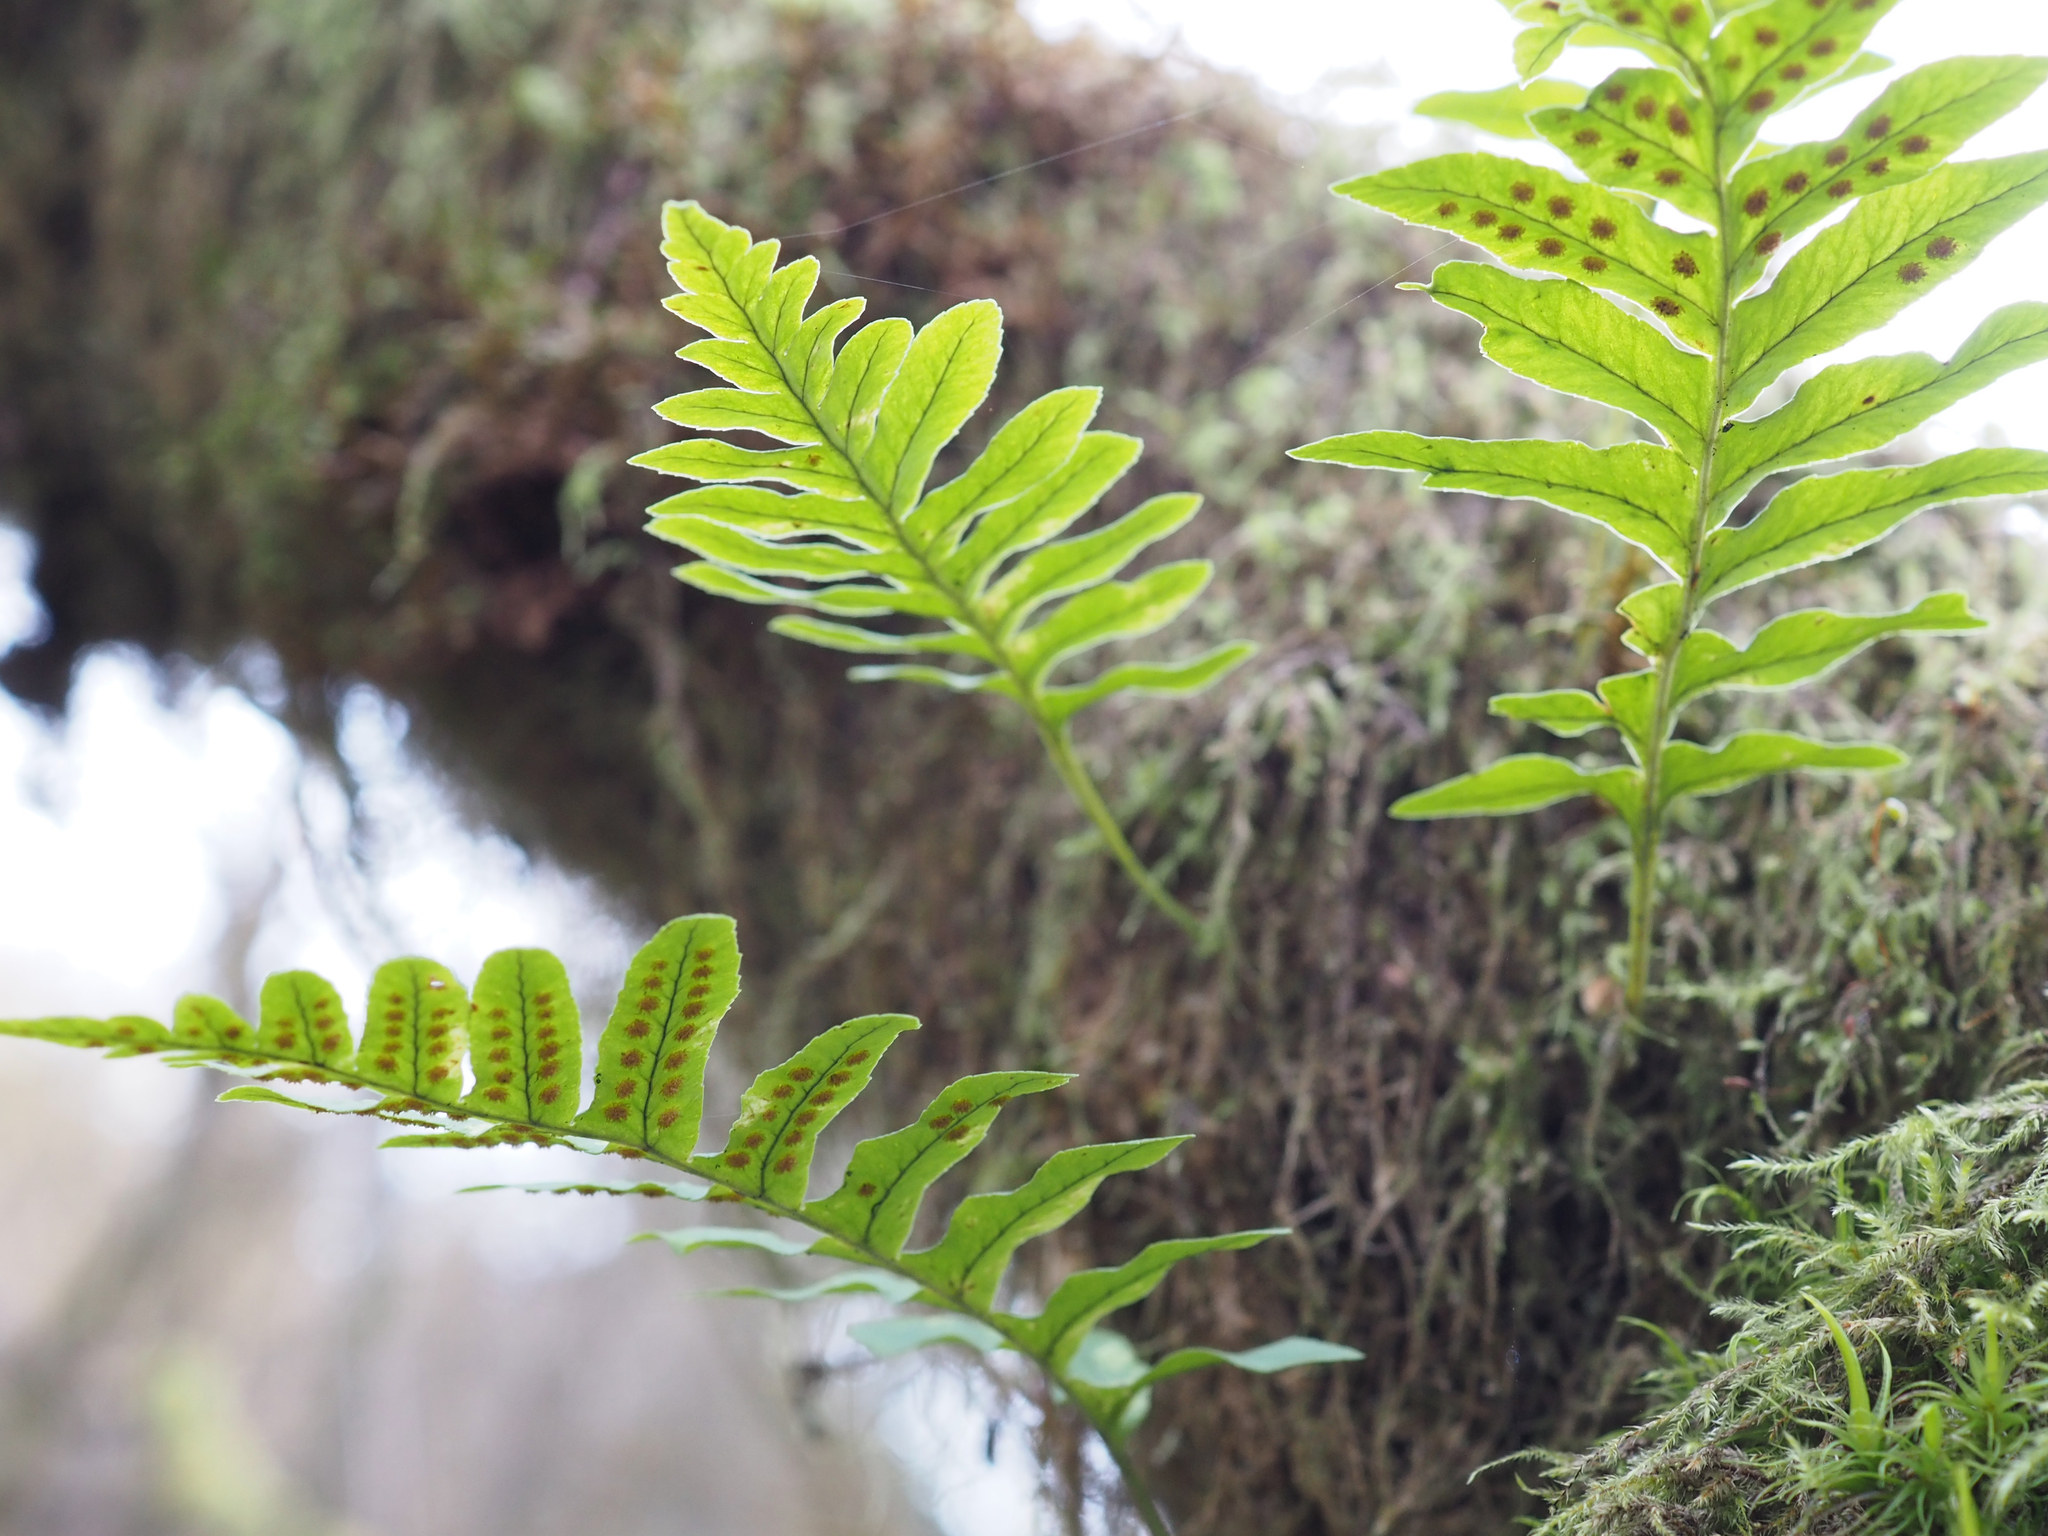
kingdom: Plantae
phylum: Tracheophyta
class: Polypodiopsida
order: Polypodiales
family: Polypodiaceae
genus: Polypodium
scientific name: Polypodium glycyrrhiza
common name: Licorice fern
